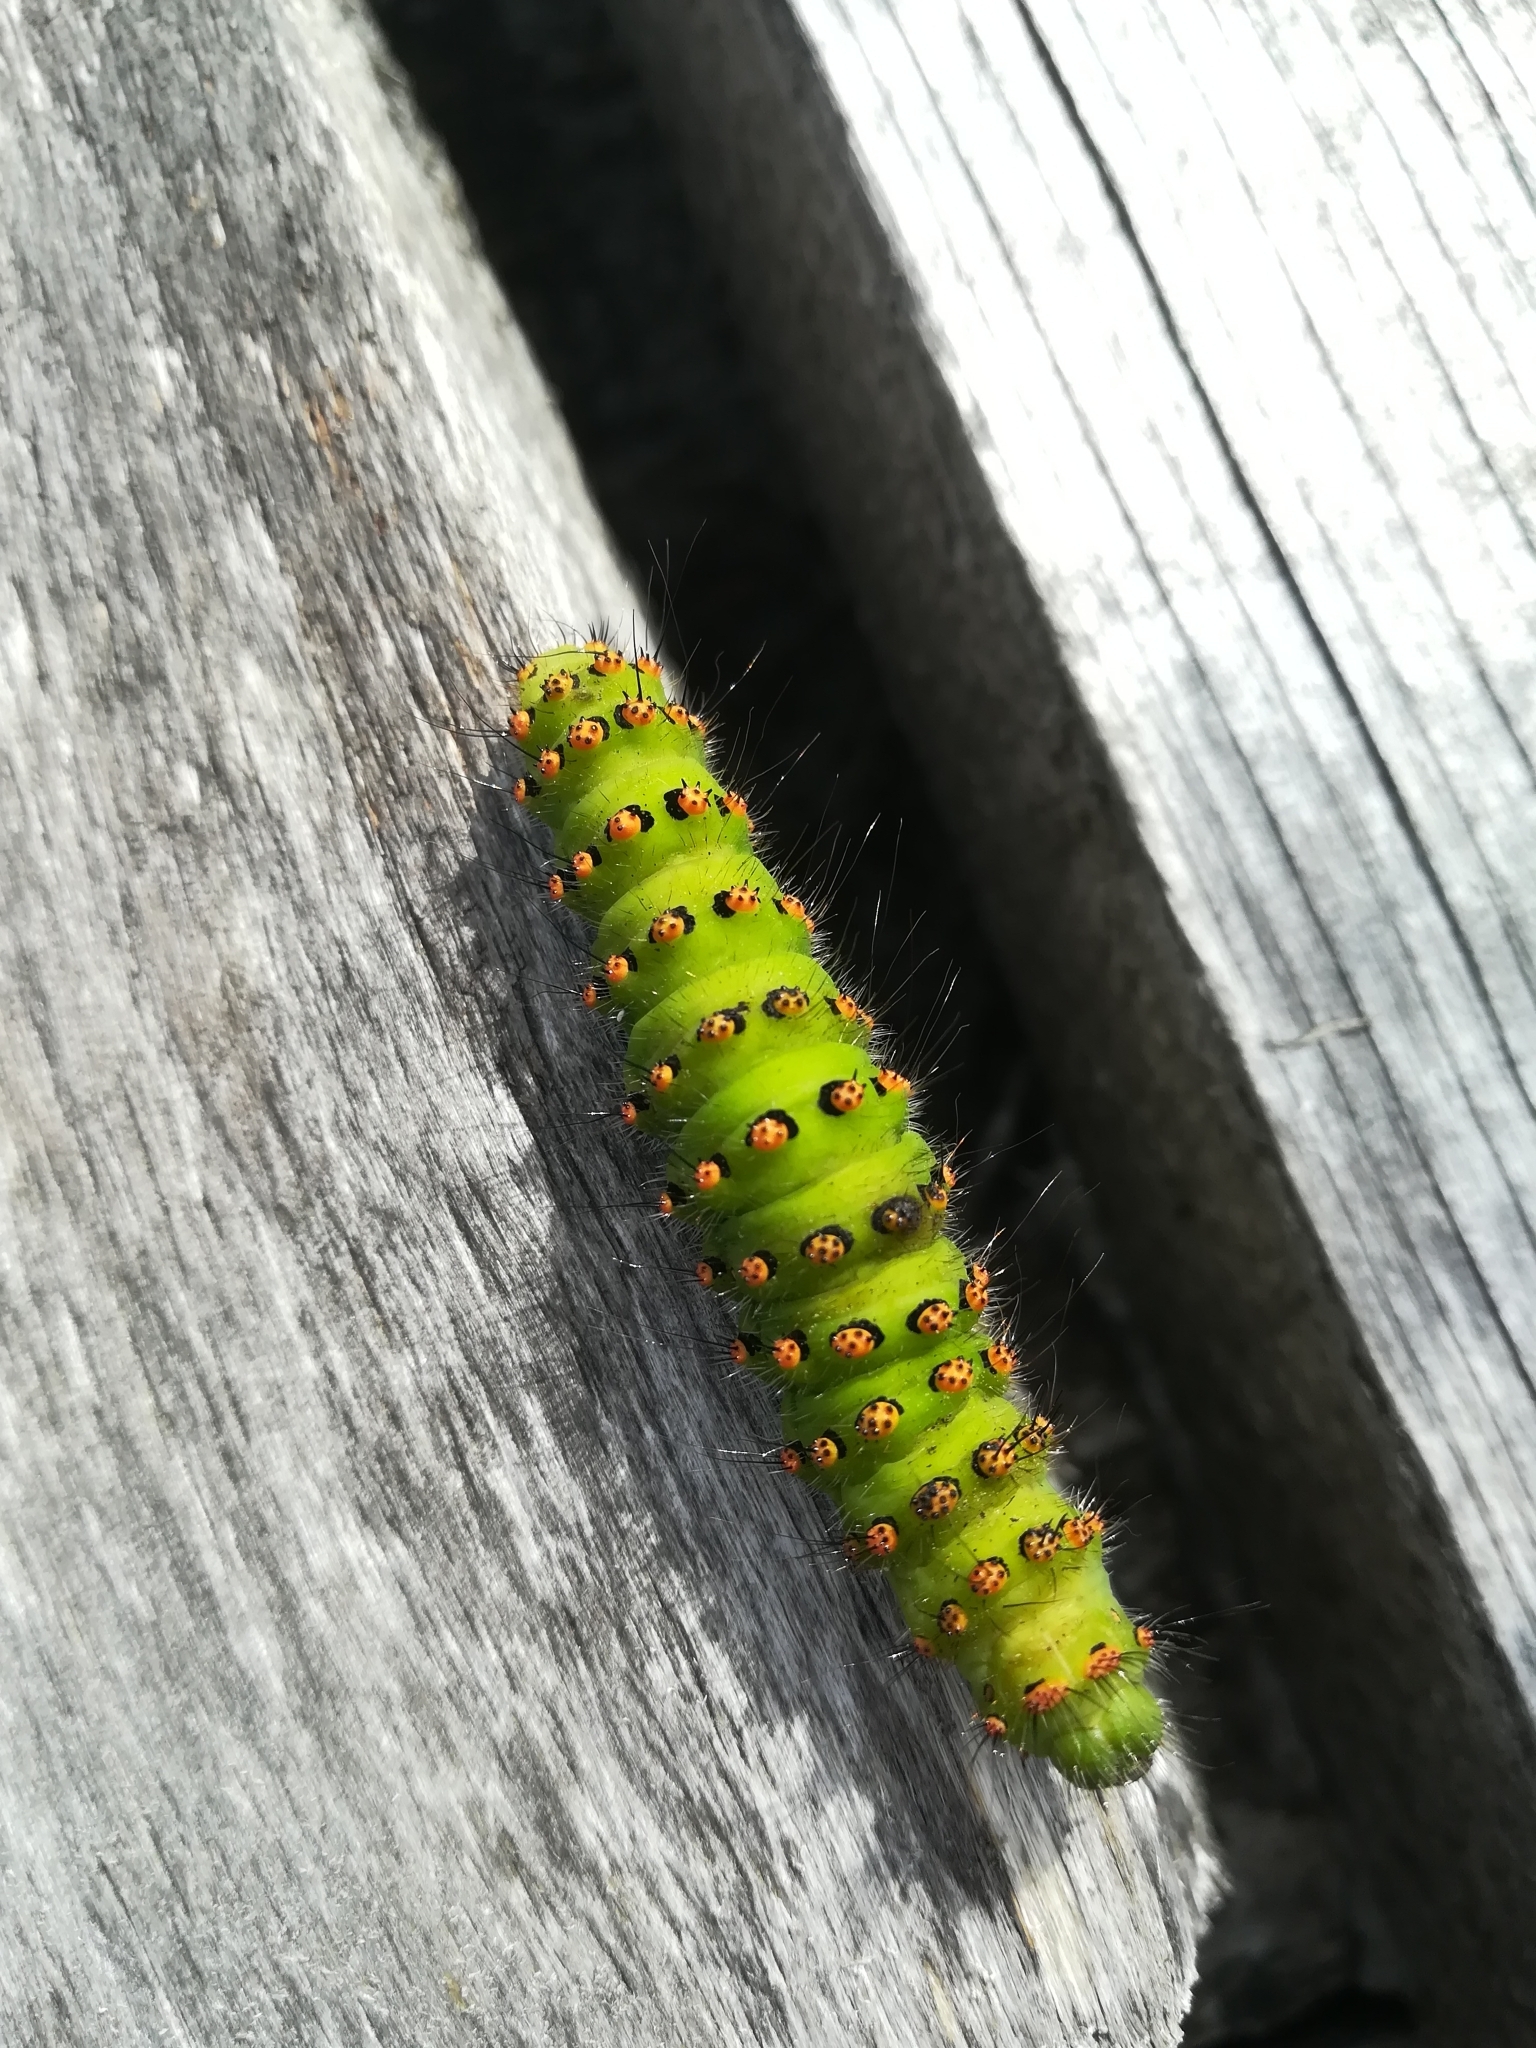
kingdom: Animalia
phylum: Arthropoda
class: Insecta
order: Lepidoptera
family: Saturniidae
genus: Saturnia
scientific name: Saturnia pavonia
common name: Emperor moth
